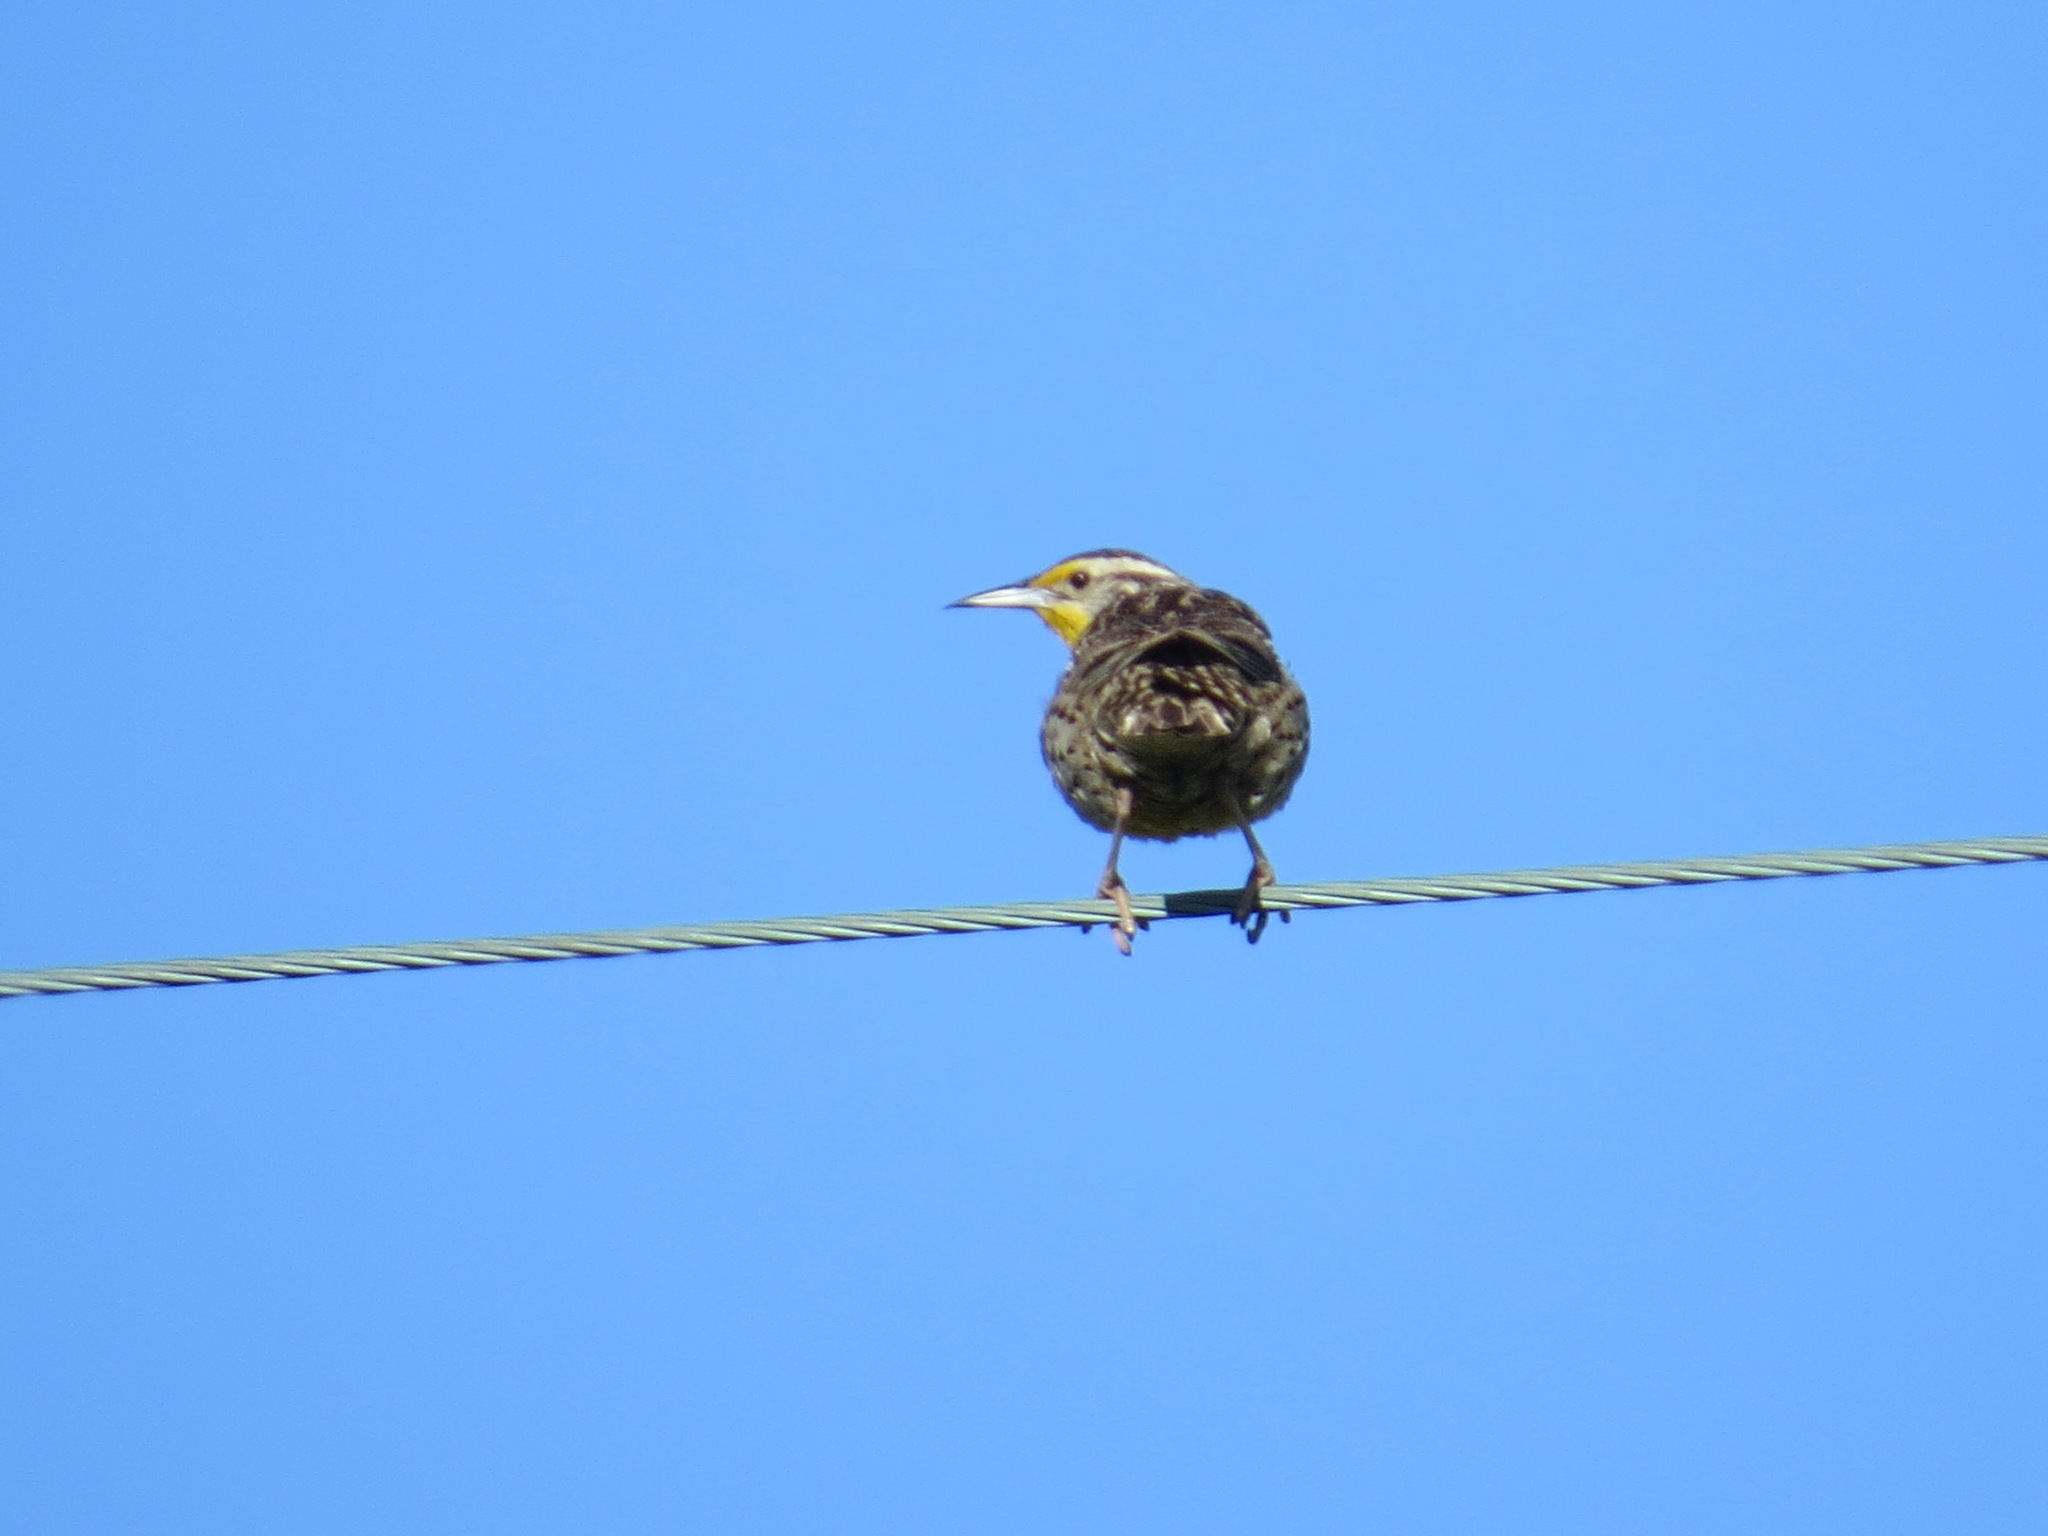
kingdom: Animalia
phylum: Chordata
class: Aves
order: Passeriformes
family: Icteridae
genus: Sturnella
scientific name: Sturnella neglecta
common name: Western meadowlark
